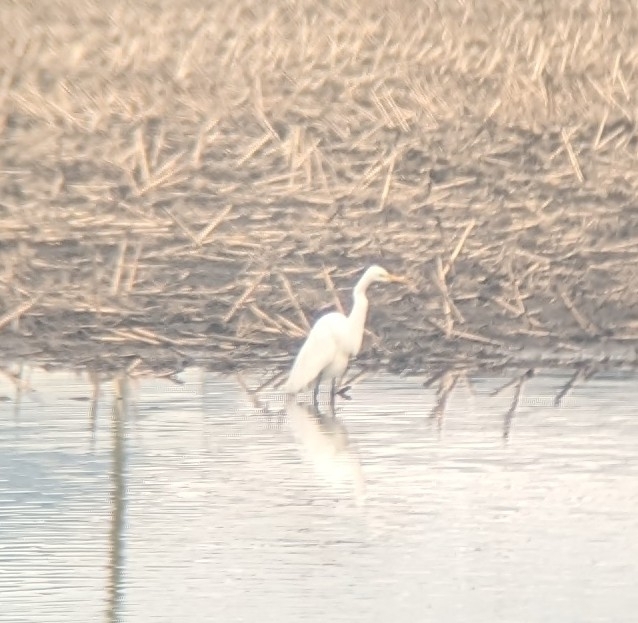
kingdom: Animalia
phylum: Chordata
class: Aves
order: Pelecaniformes
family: Ardeidae
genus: Ardea
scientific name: Ardea alba
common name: Great egret
